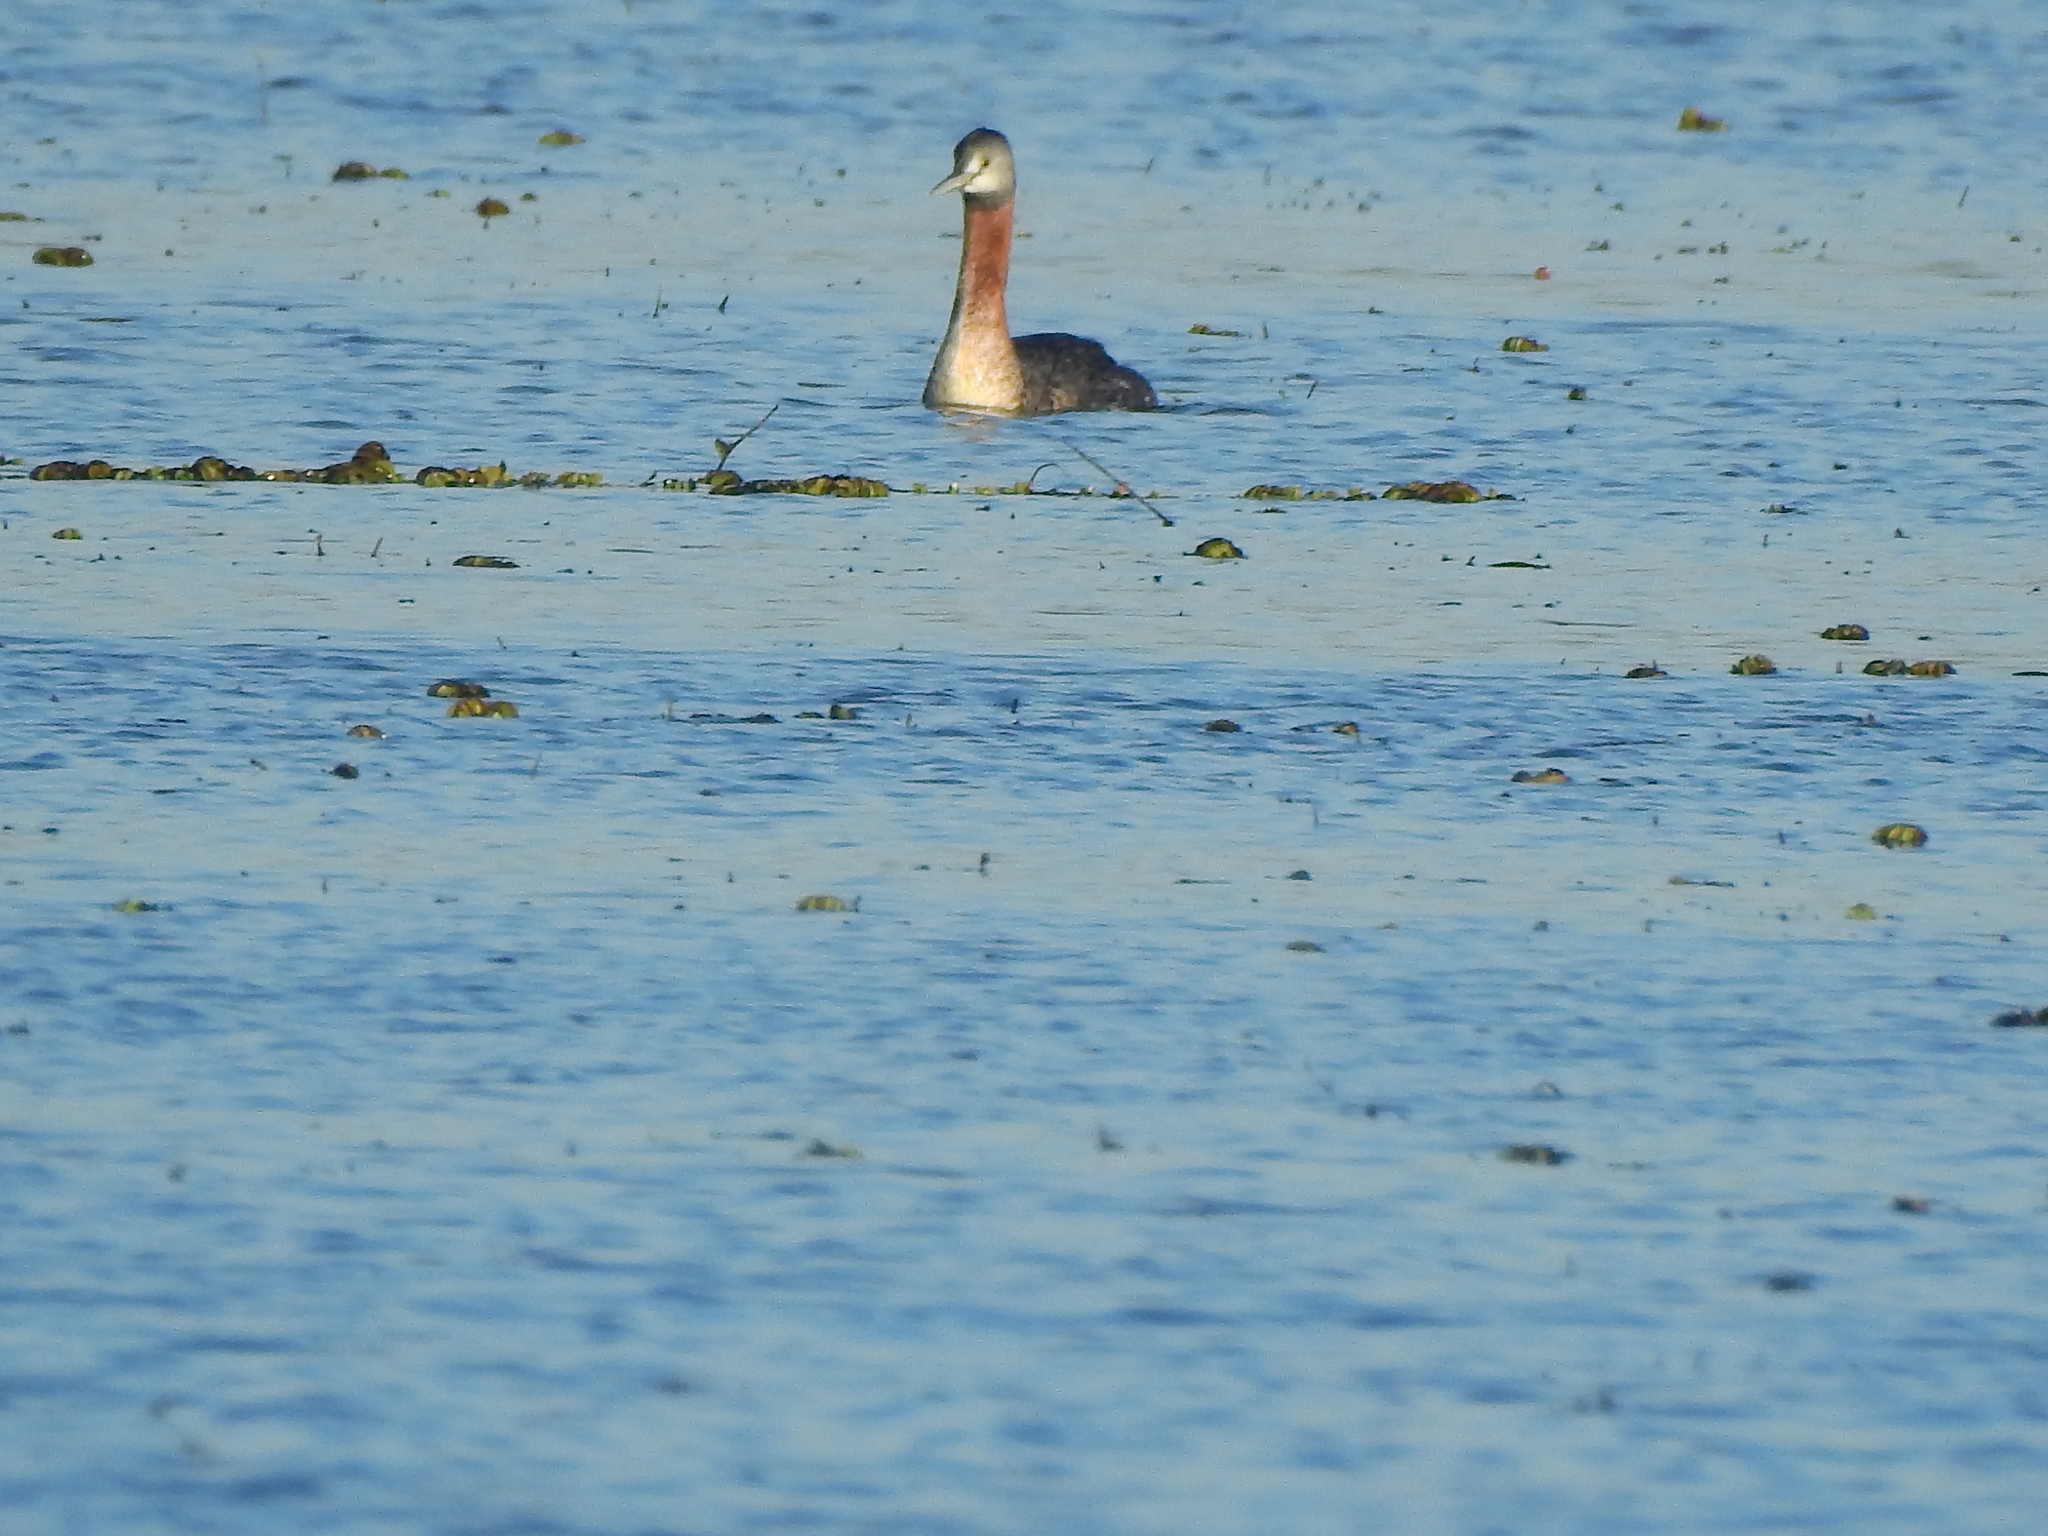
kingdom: Animalia
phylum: Chordata
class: Aves
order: Podicipediformes
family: Podicipedidae
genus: Podiceps
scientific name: Podiceps major
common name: Great grebe
